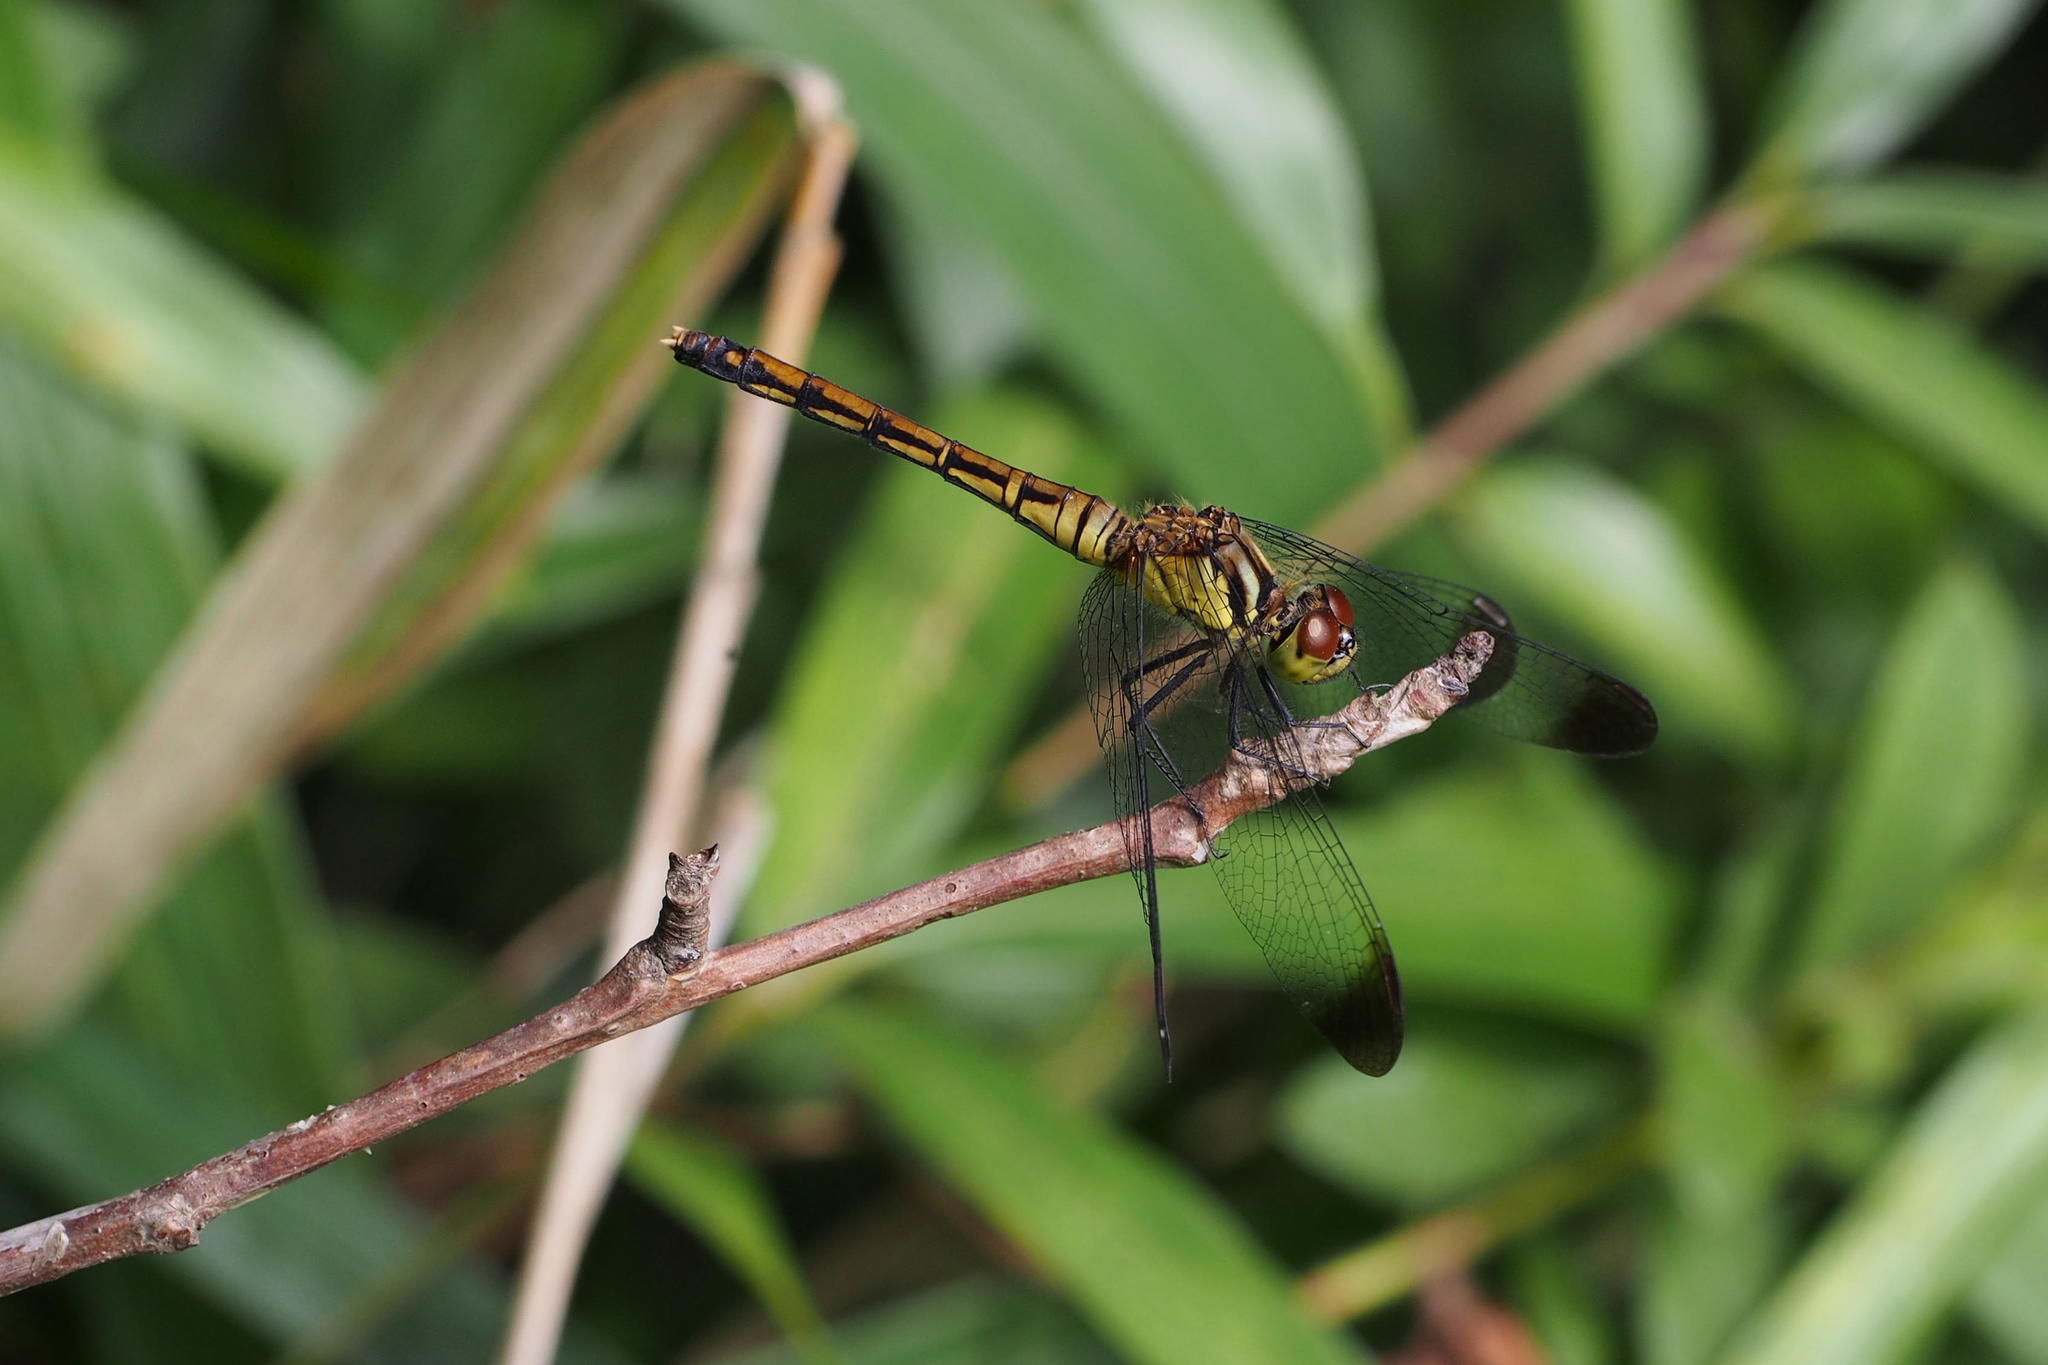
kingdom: Animalia
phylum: Arthropoda
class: Insecta
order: Odonata
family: Libellulidae
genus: Sympetrum
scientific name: Sympetrum eroticum
